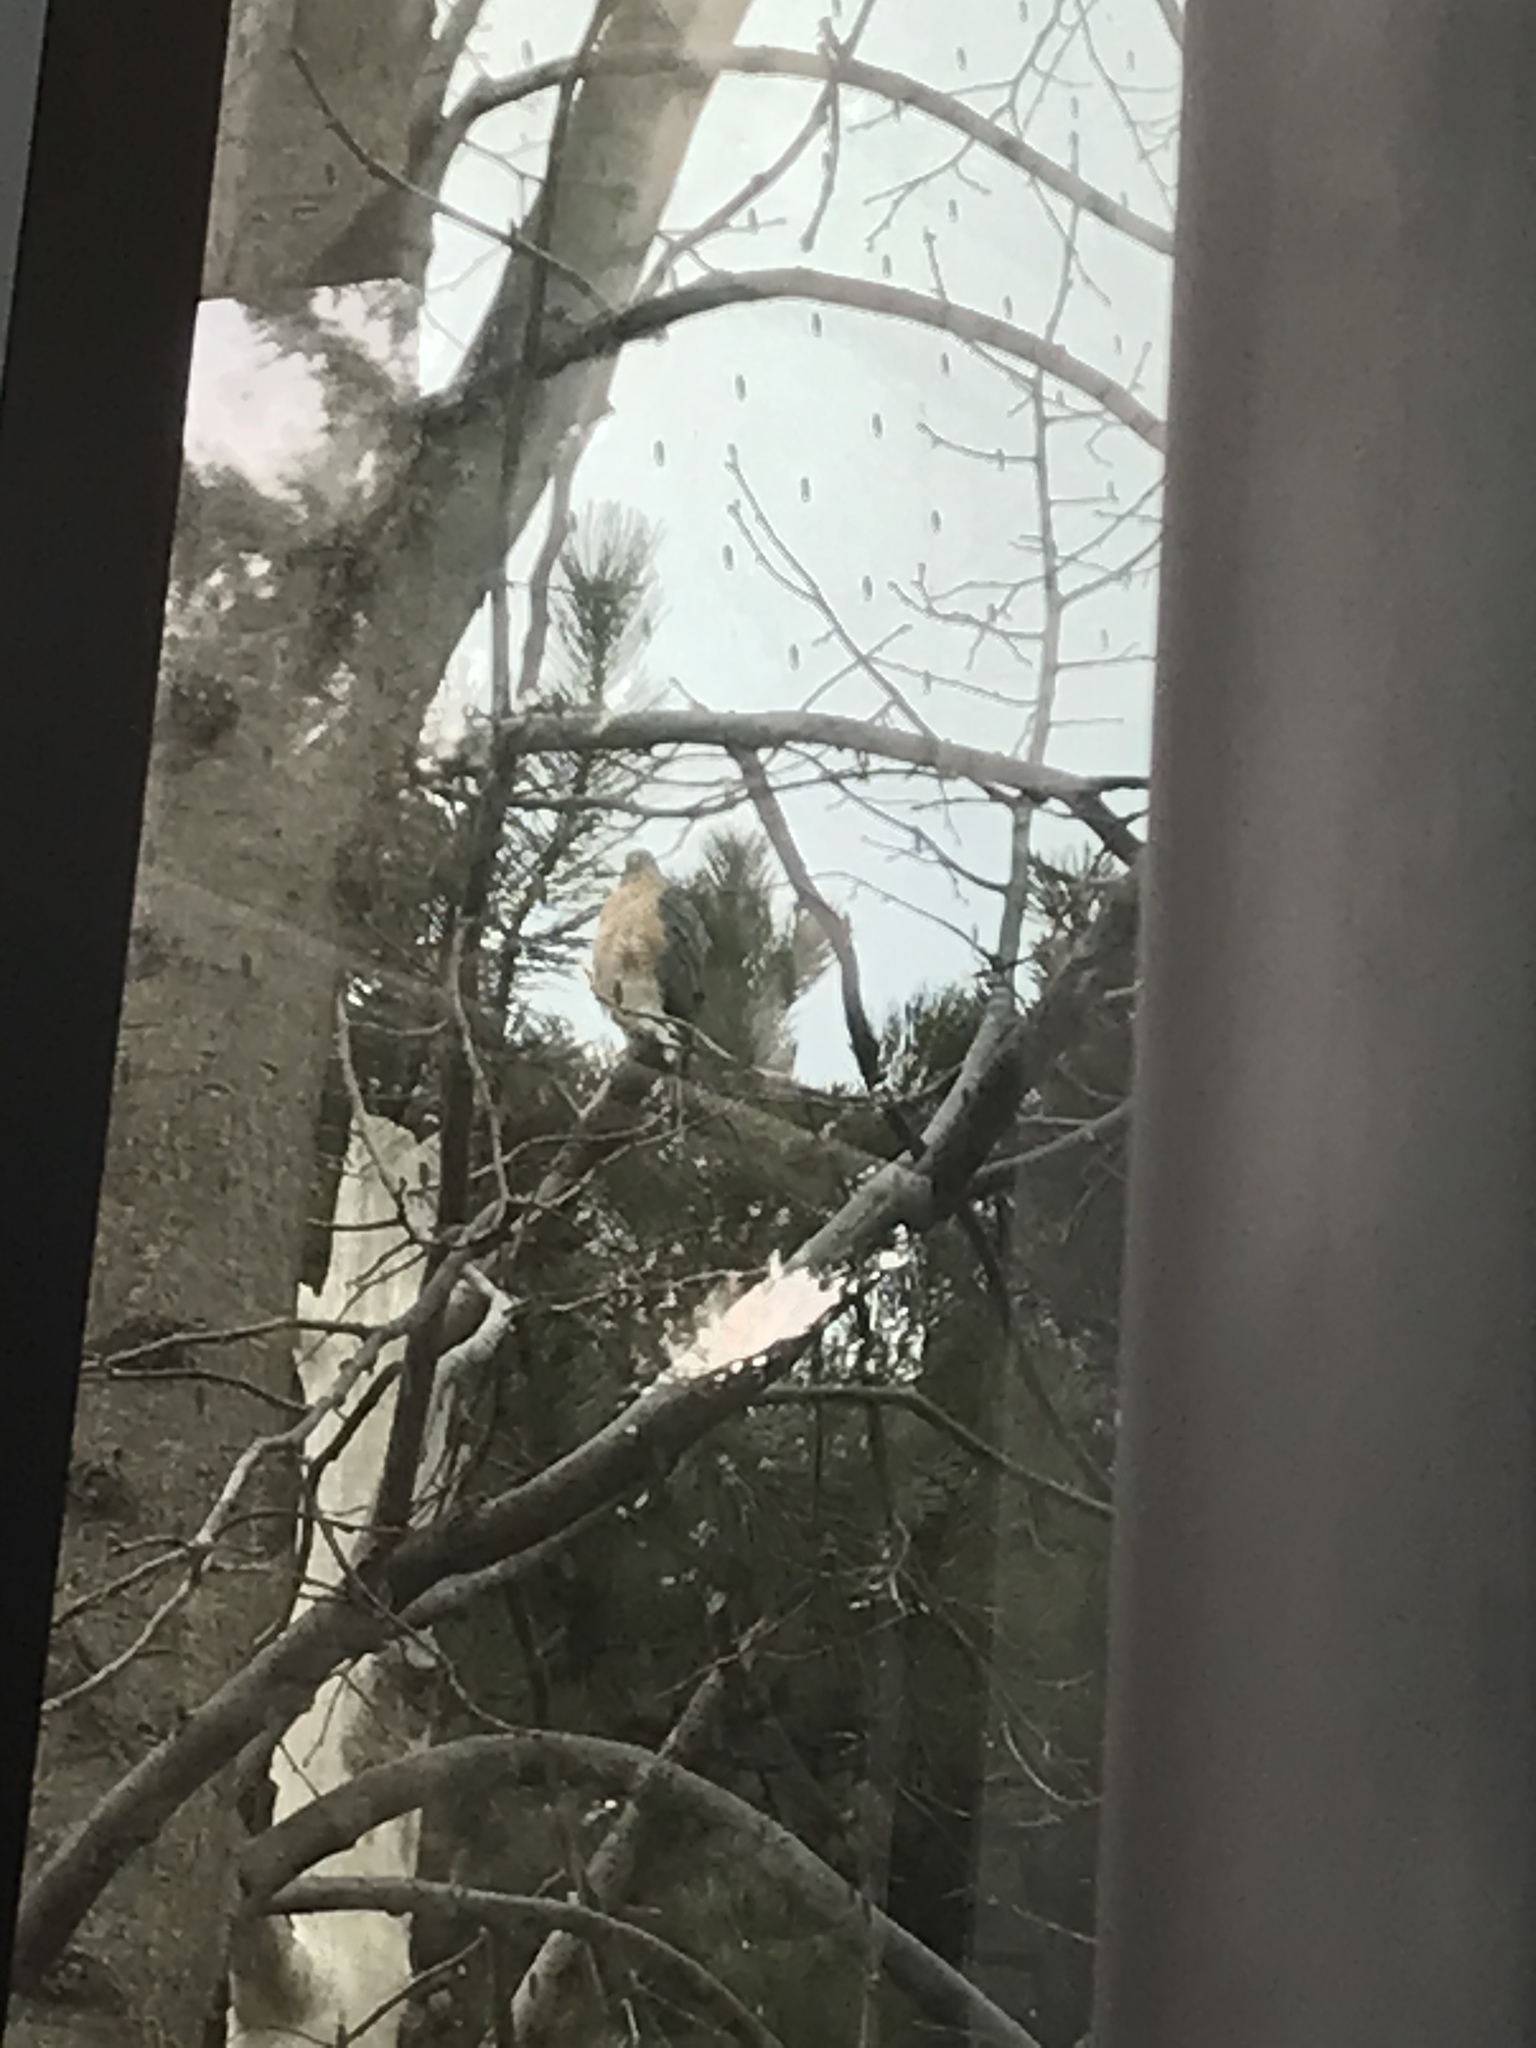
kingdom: Animalia
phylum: Chordata
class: Aves
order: Accipitriformes
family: Accipitridae
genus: Accipiter
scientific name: Accipiter cooperii
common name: Cooper's hawk
